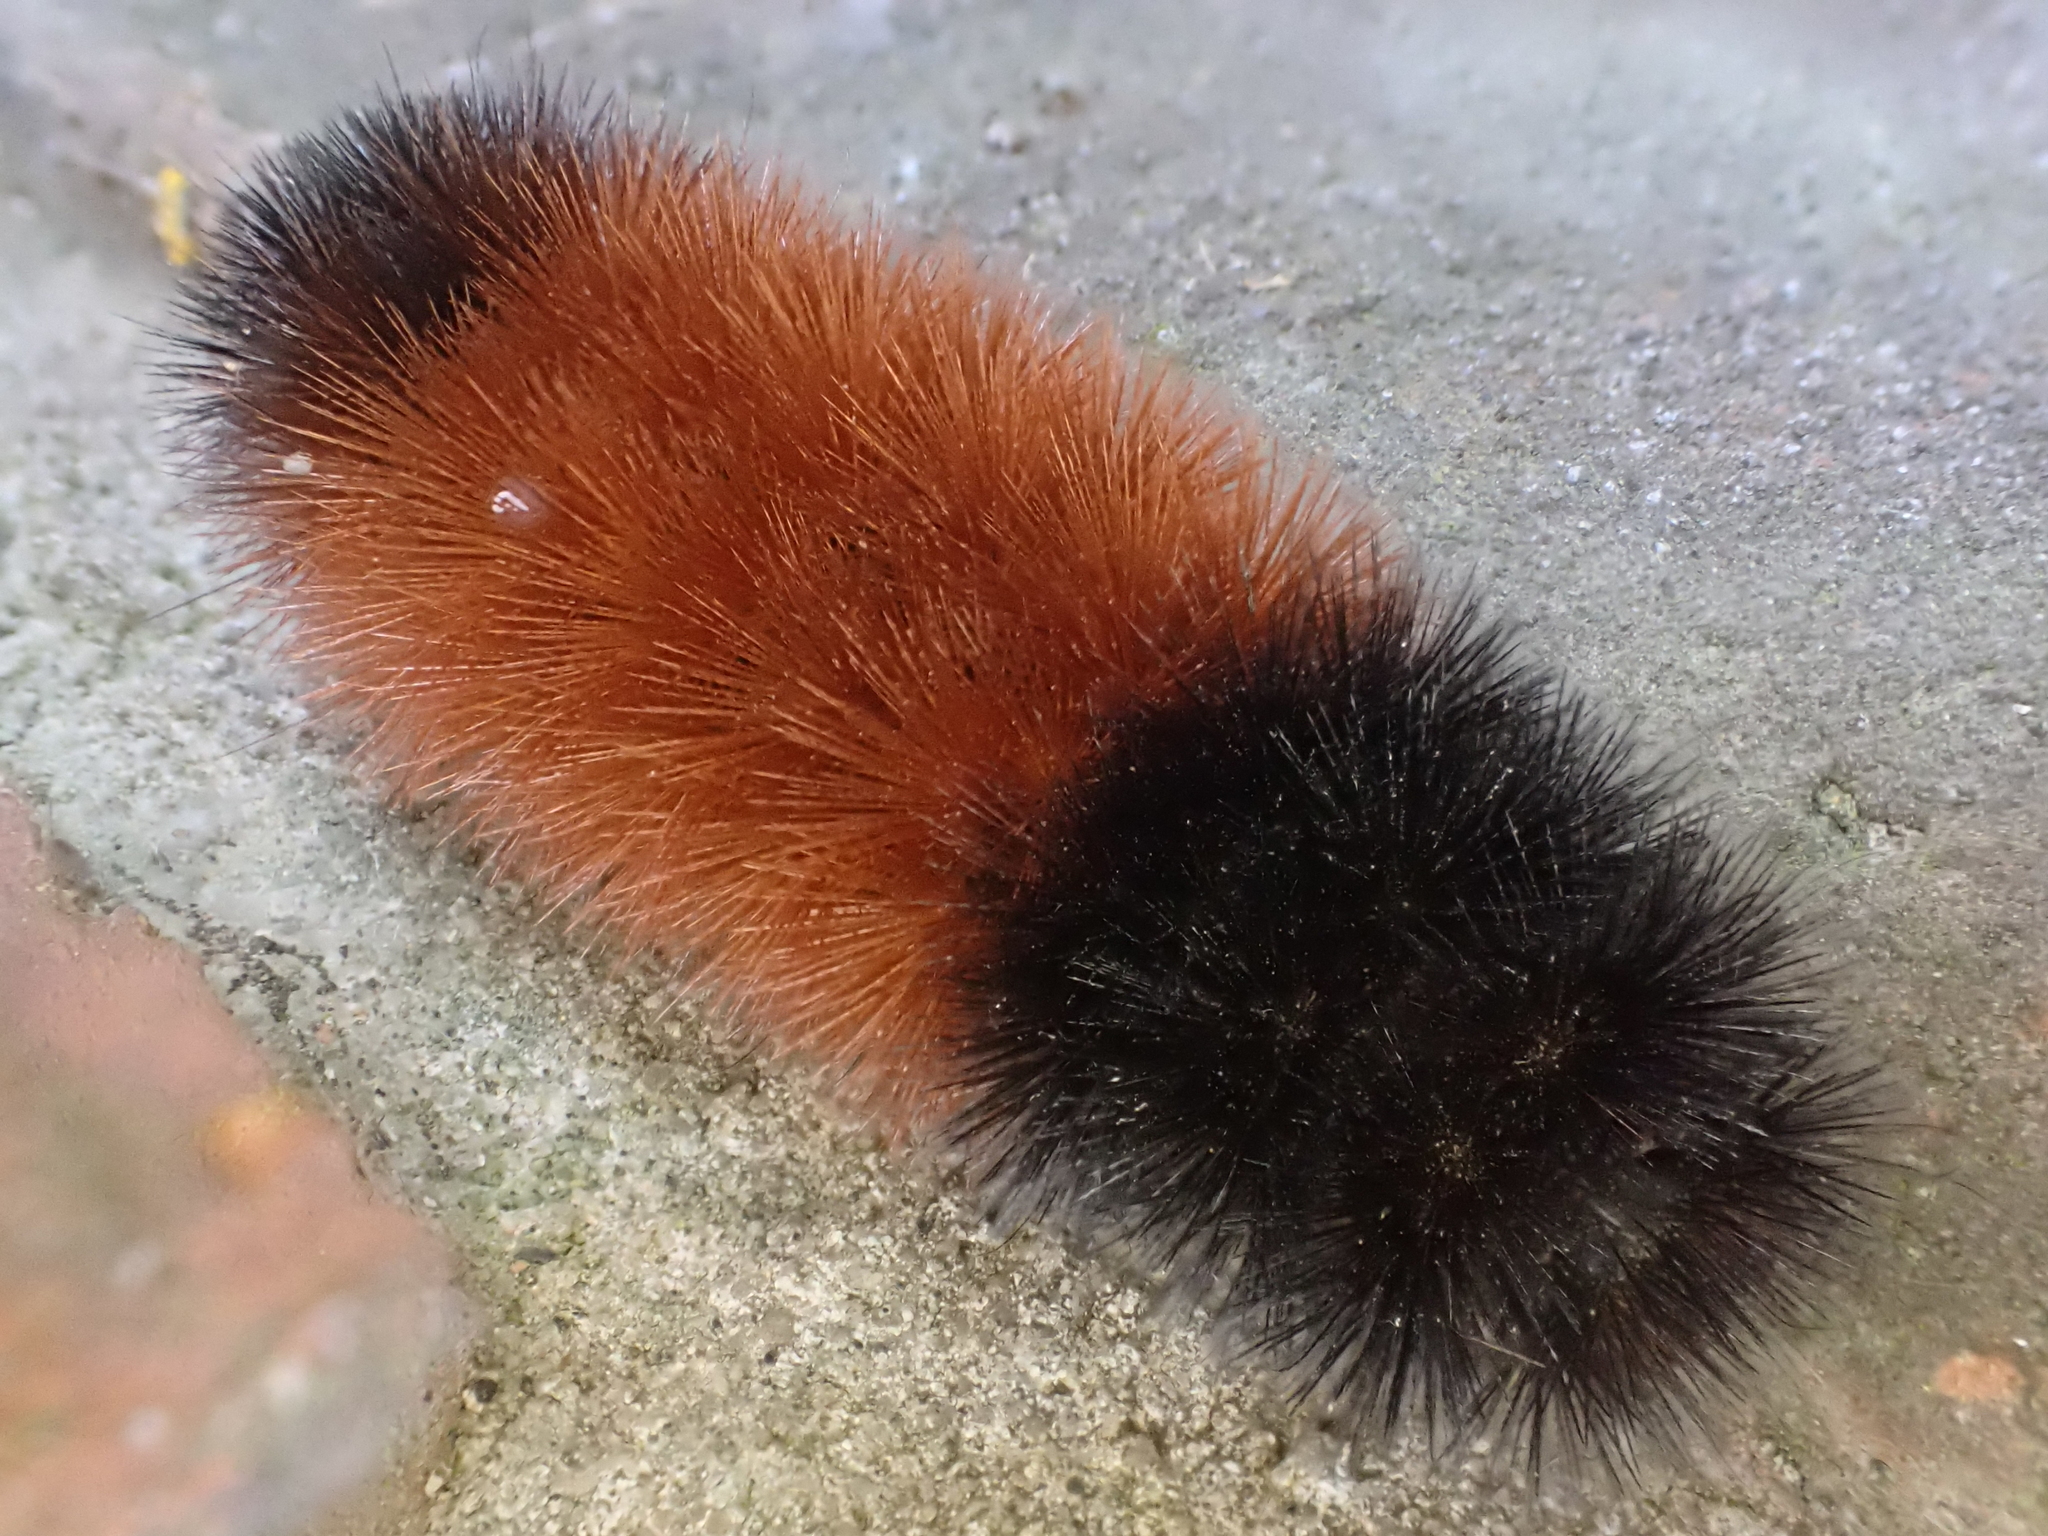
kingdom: Animalia
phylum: Arthropoda
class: Insecta
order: Lepidoptera
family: Erebidae
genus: Pyrrharctia
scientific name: Pyrrharctia isabella
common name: Isabella tiger moth
